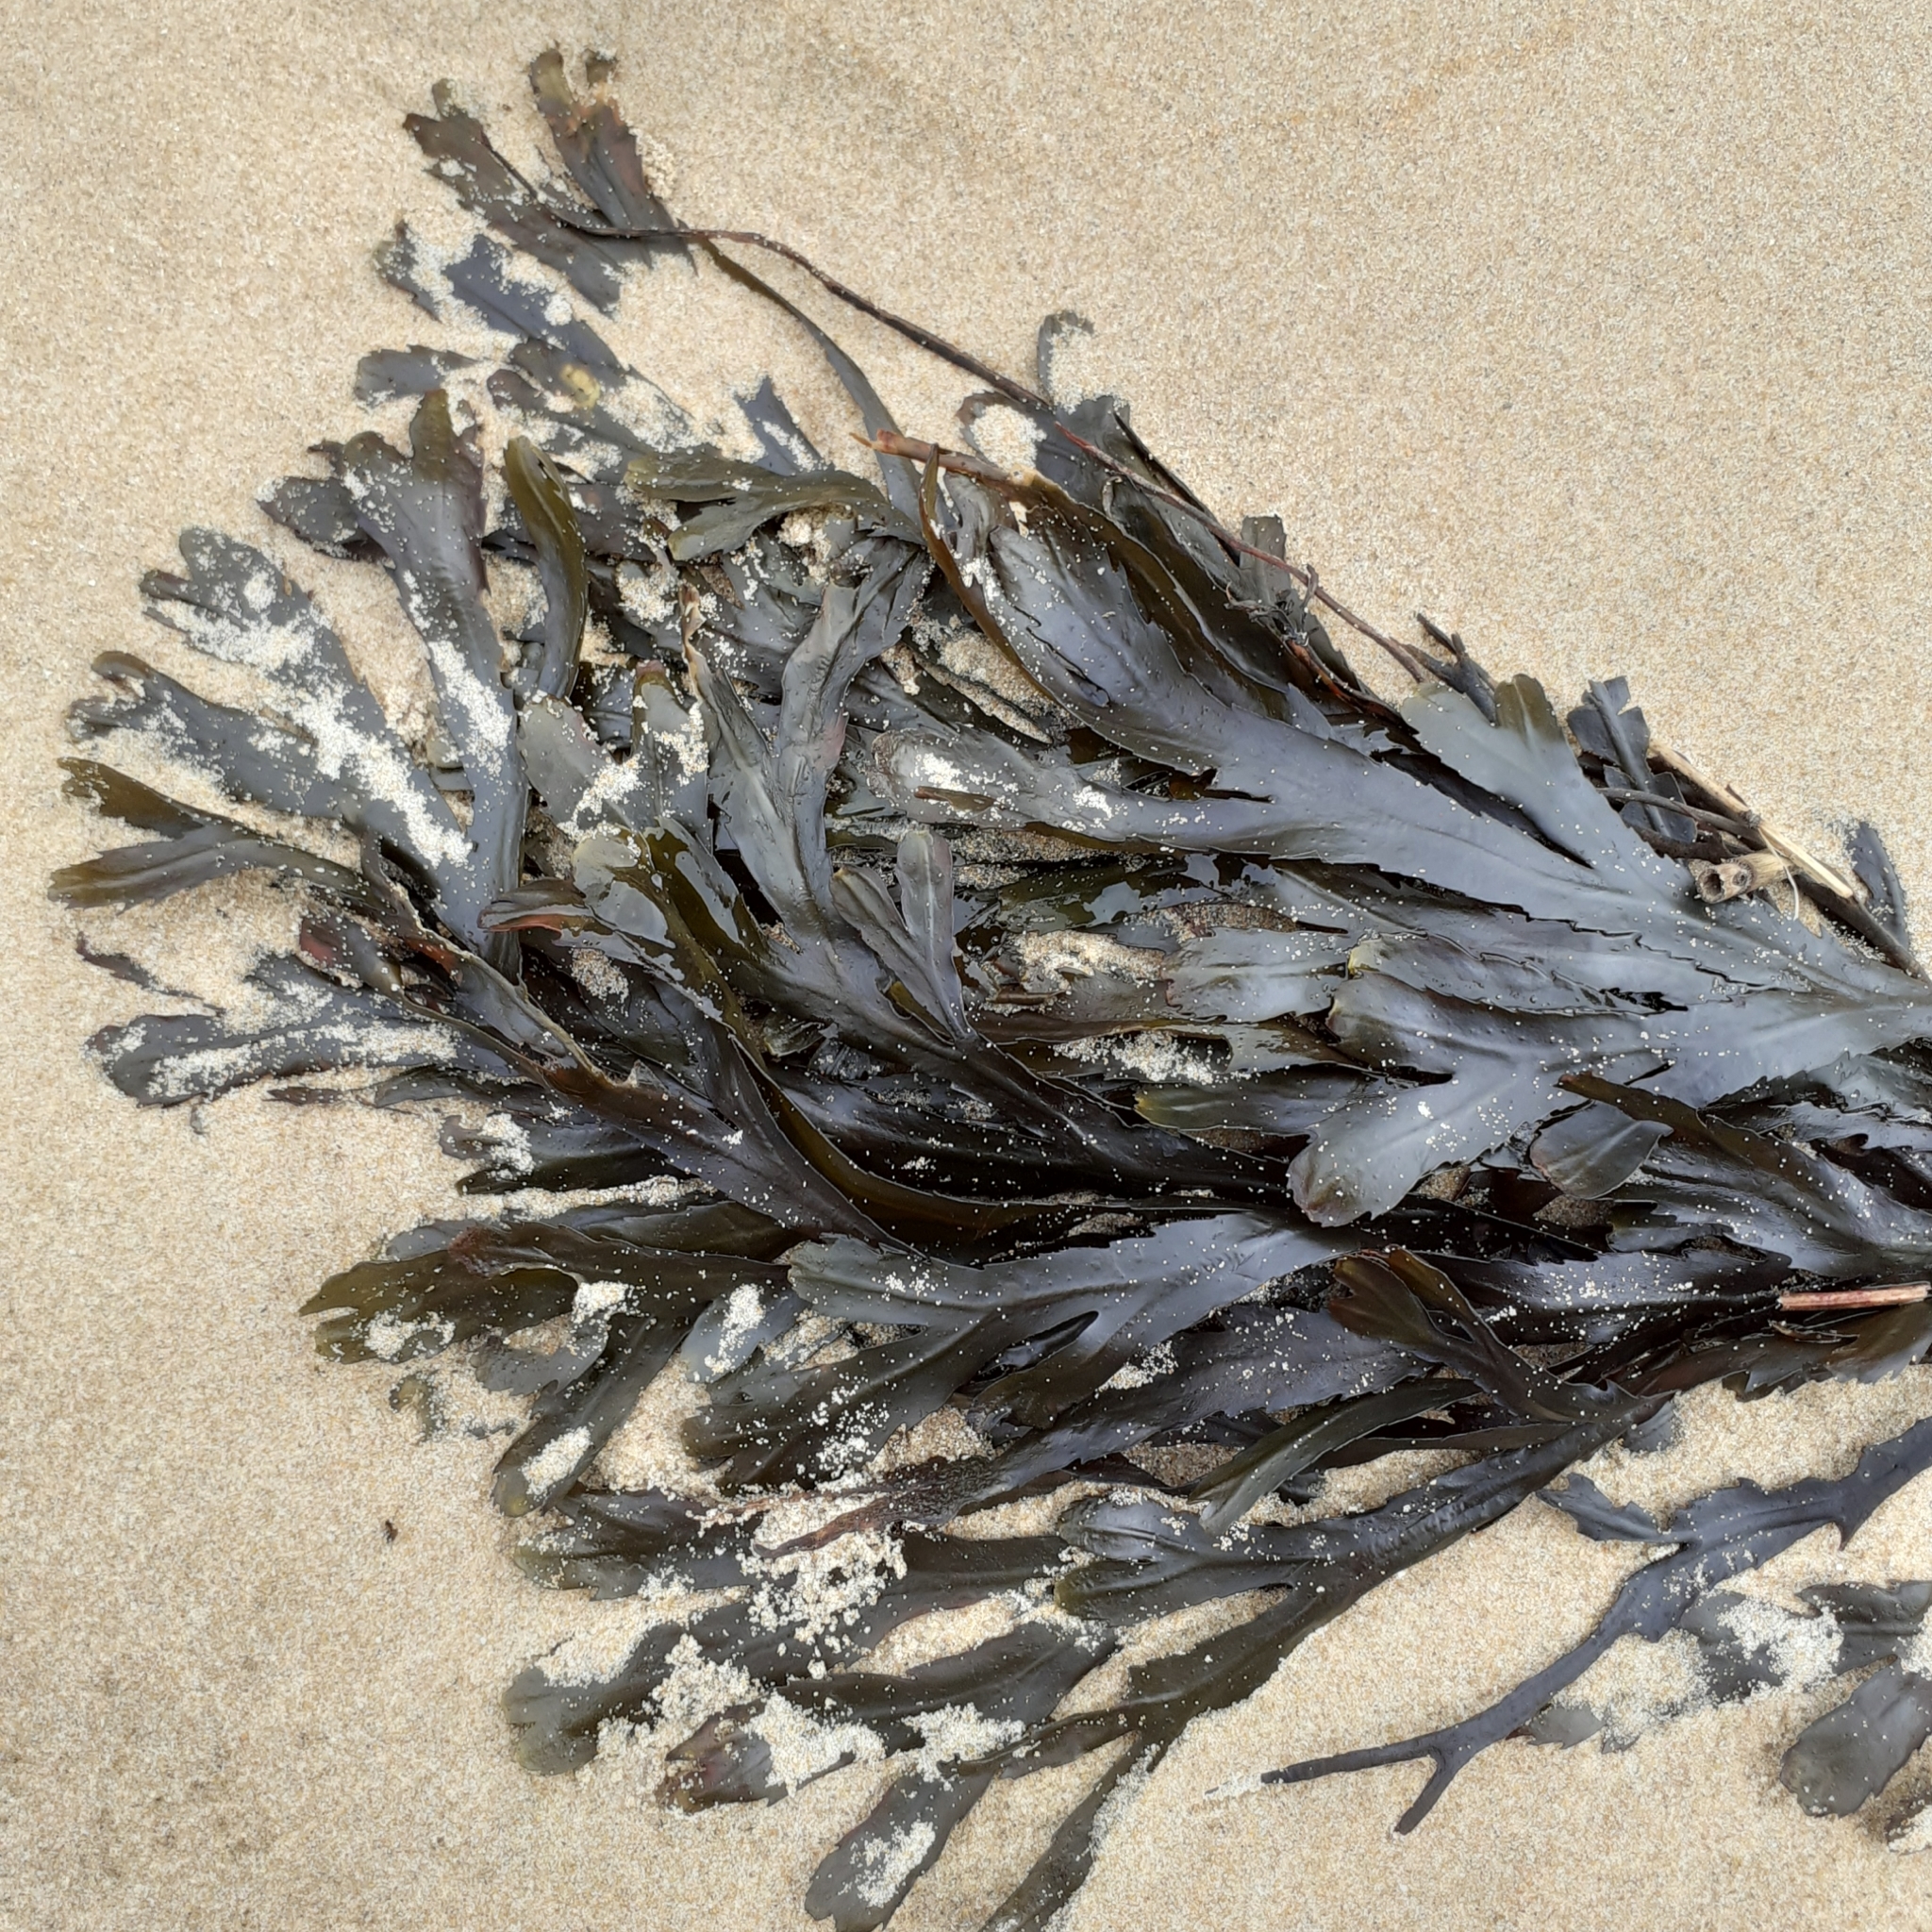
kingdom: Chromista
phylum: Ochrophyta
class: Phaeophyceae
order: Fucales
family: Fucaceae
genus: Fucus
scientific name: Fucus serratus
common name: Toothed wrack
